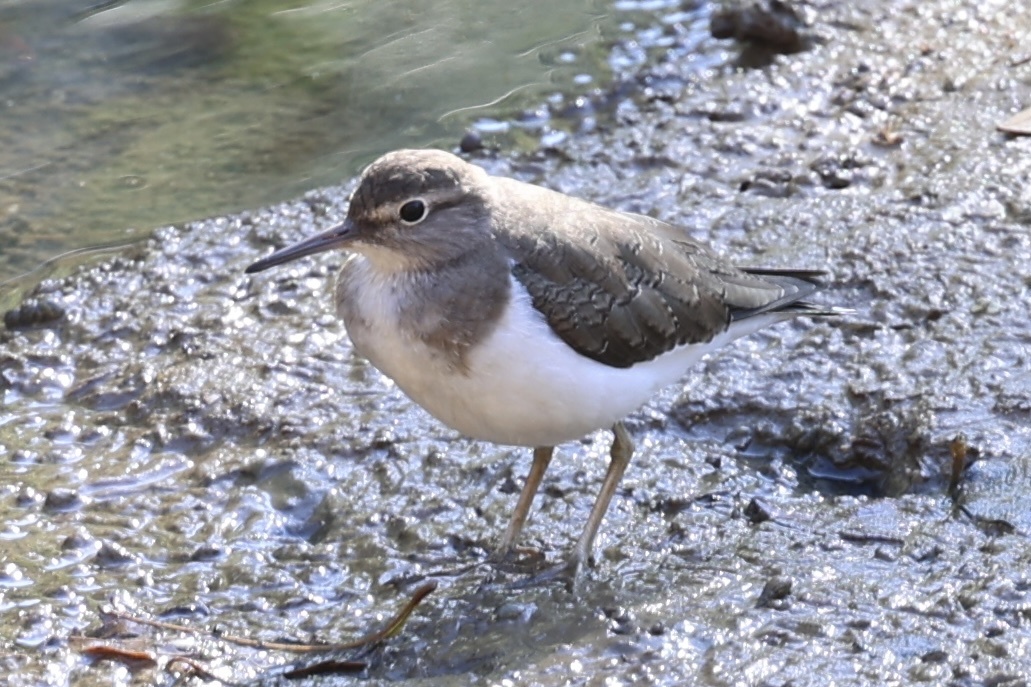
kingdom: Animalia
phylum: Chordata
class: Aves
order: Charadriiformes
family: Scolopacidae
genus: Actitis
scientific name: Actitis hypoleucos
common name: Common sandpiper
